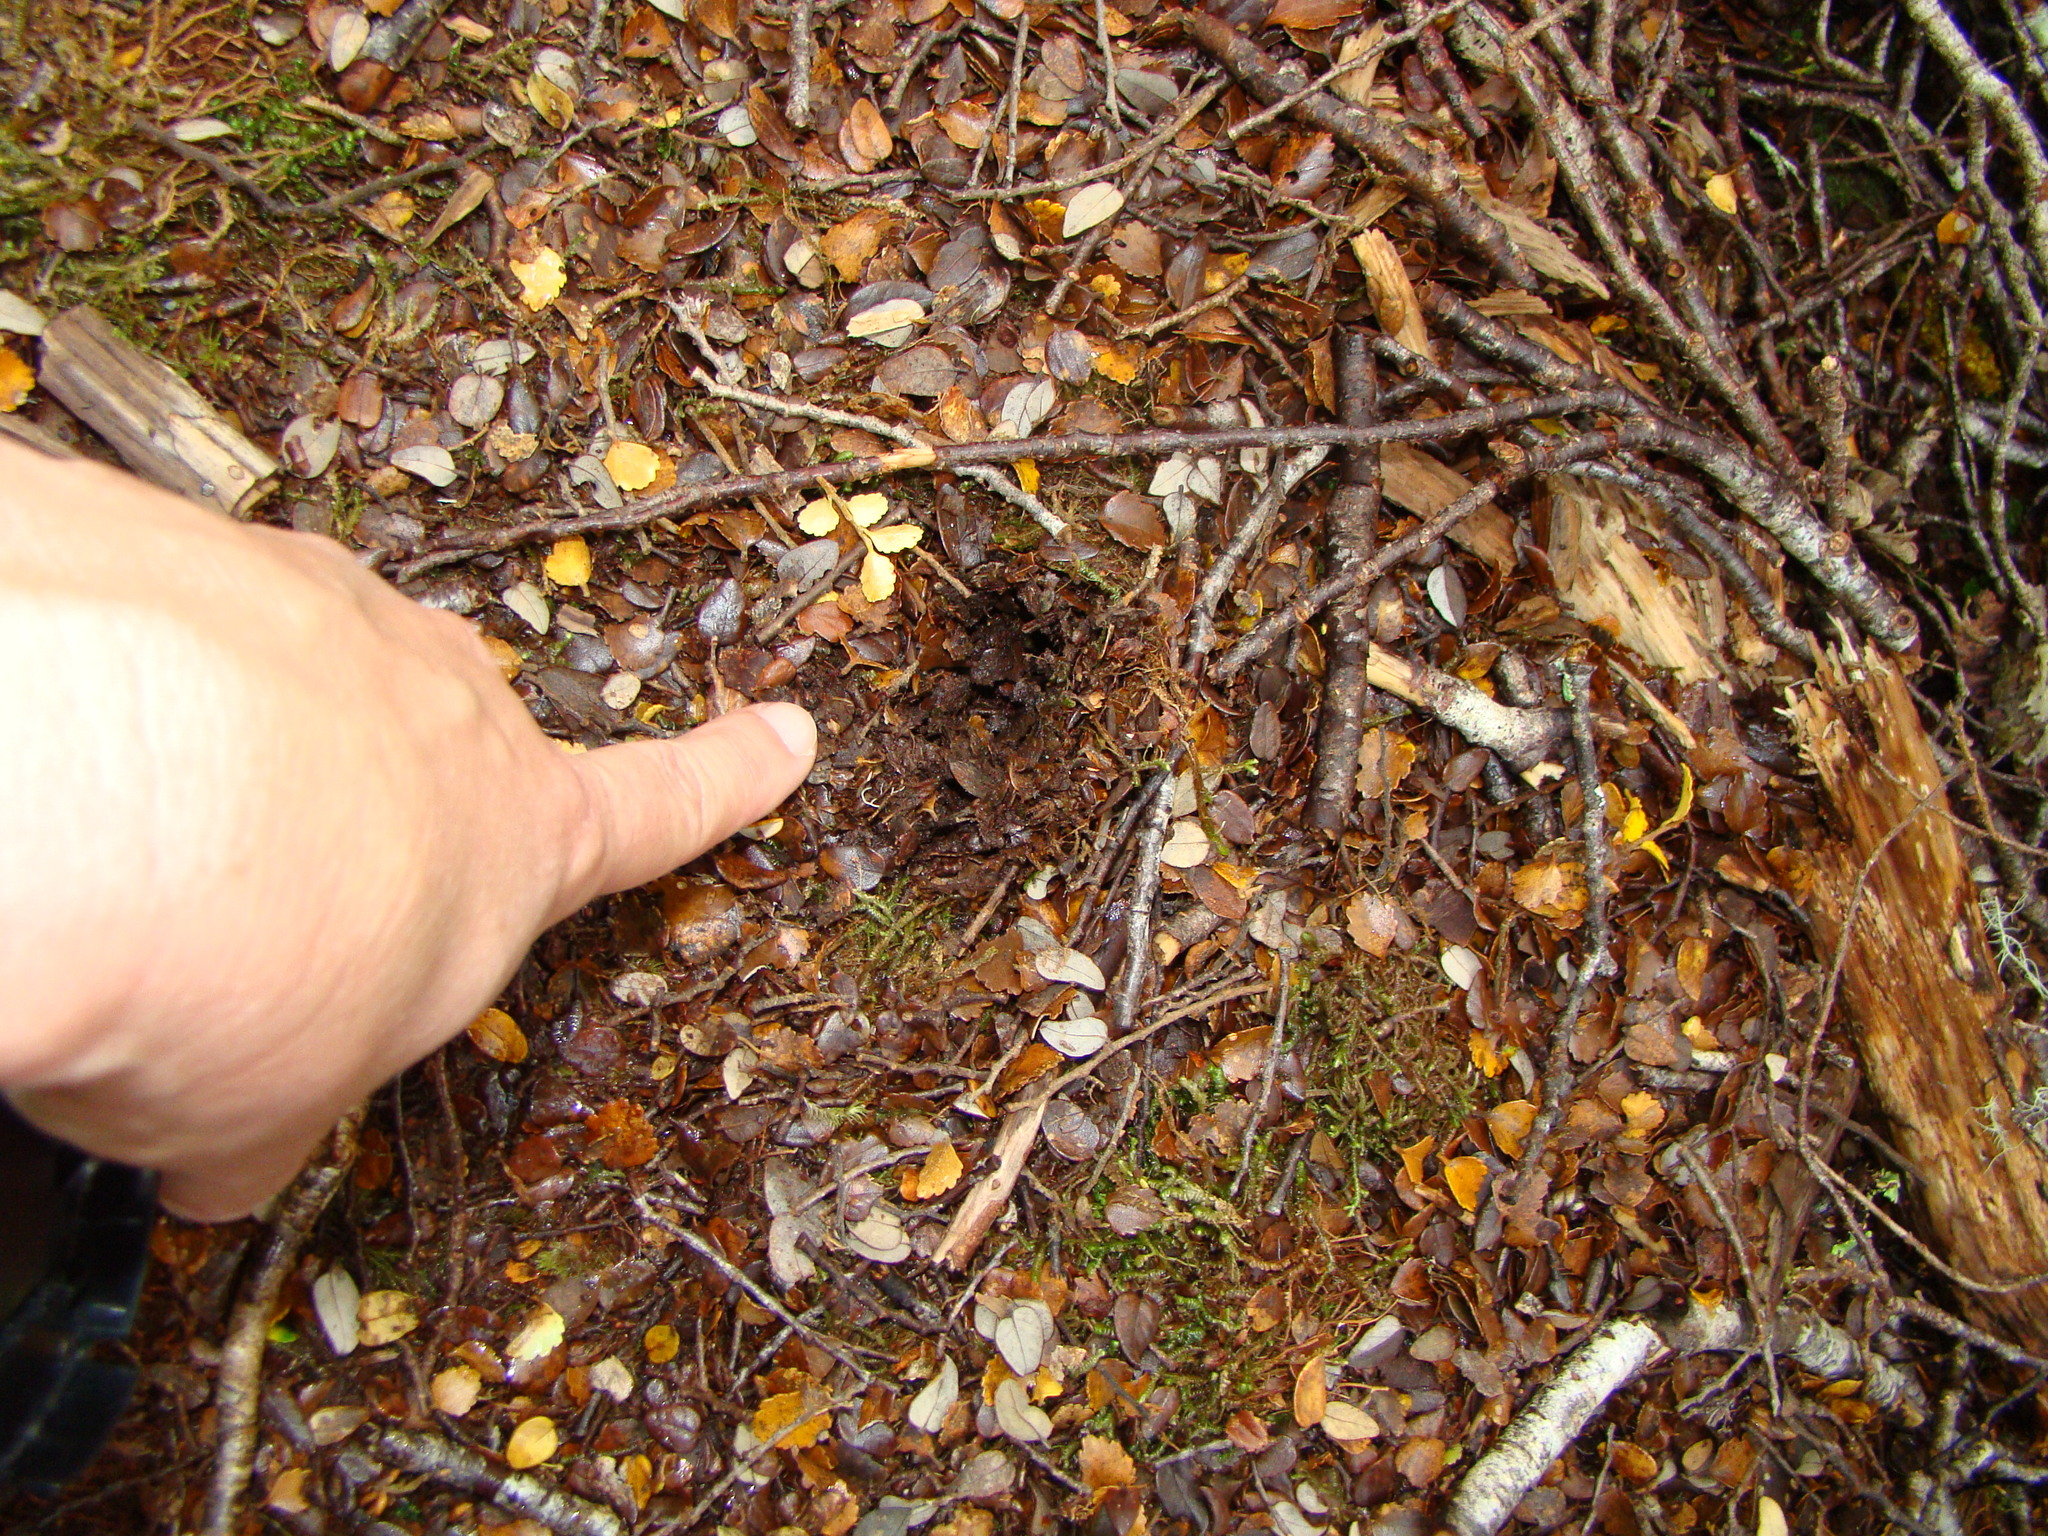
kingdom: Animalia
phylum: Chordata
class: Aves
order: Apterygiformes
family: Apterygidae
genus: Apteryx
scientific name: Apteryx haastii
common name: Great spotted kiwi
